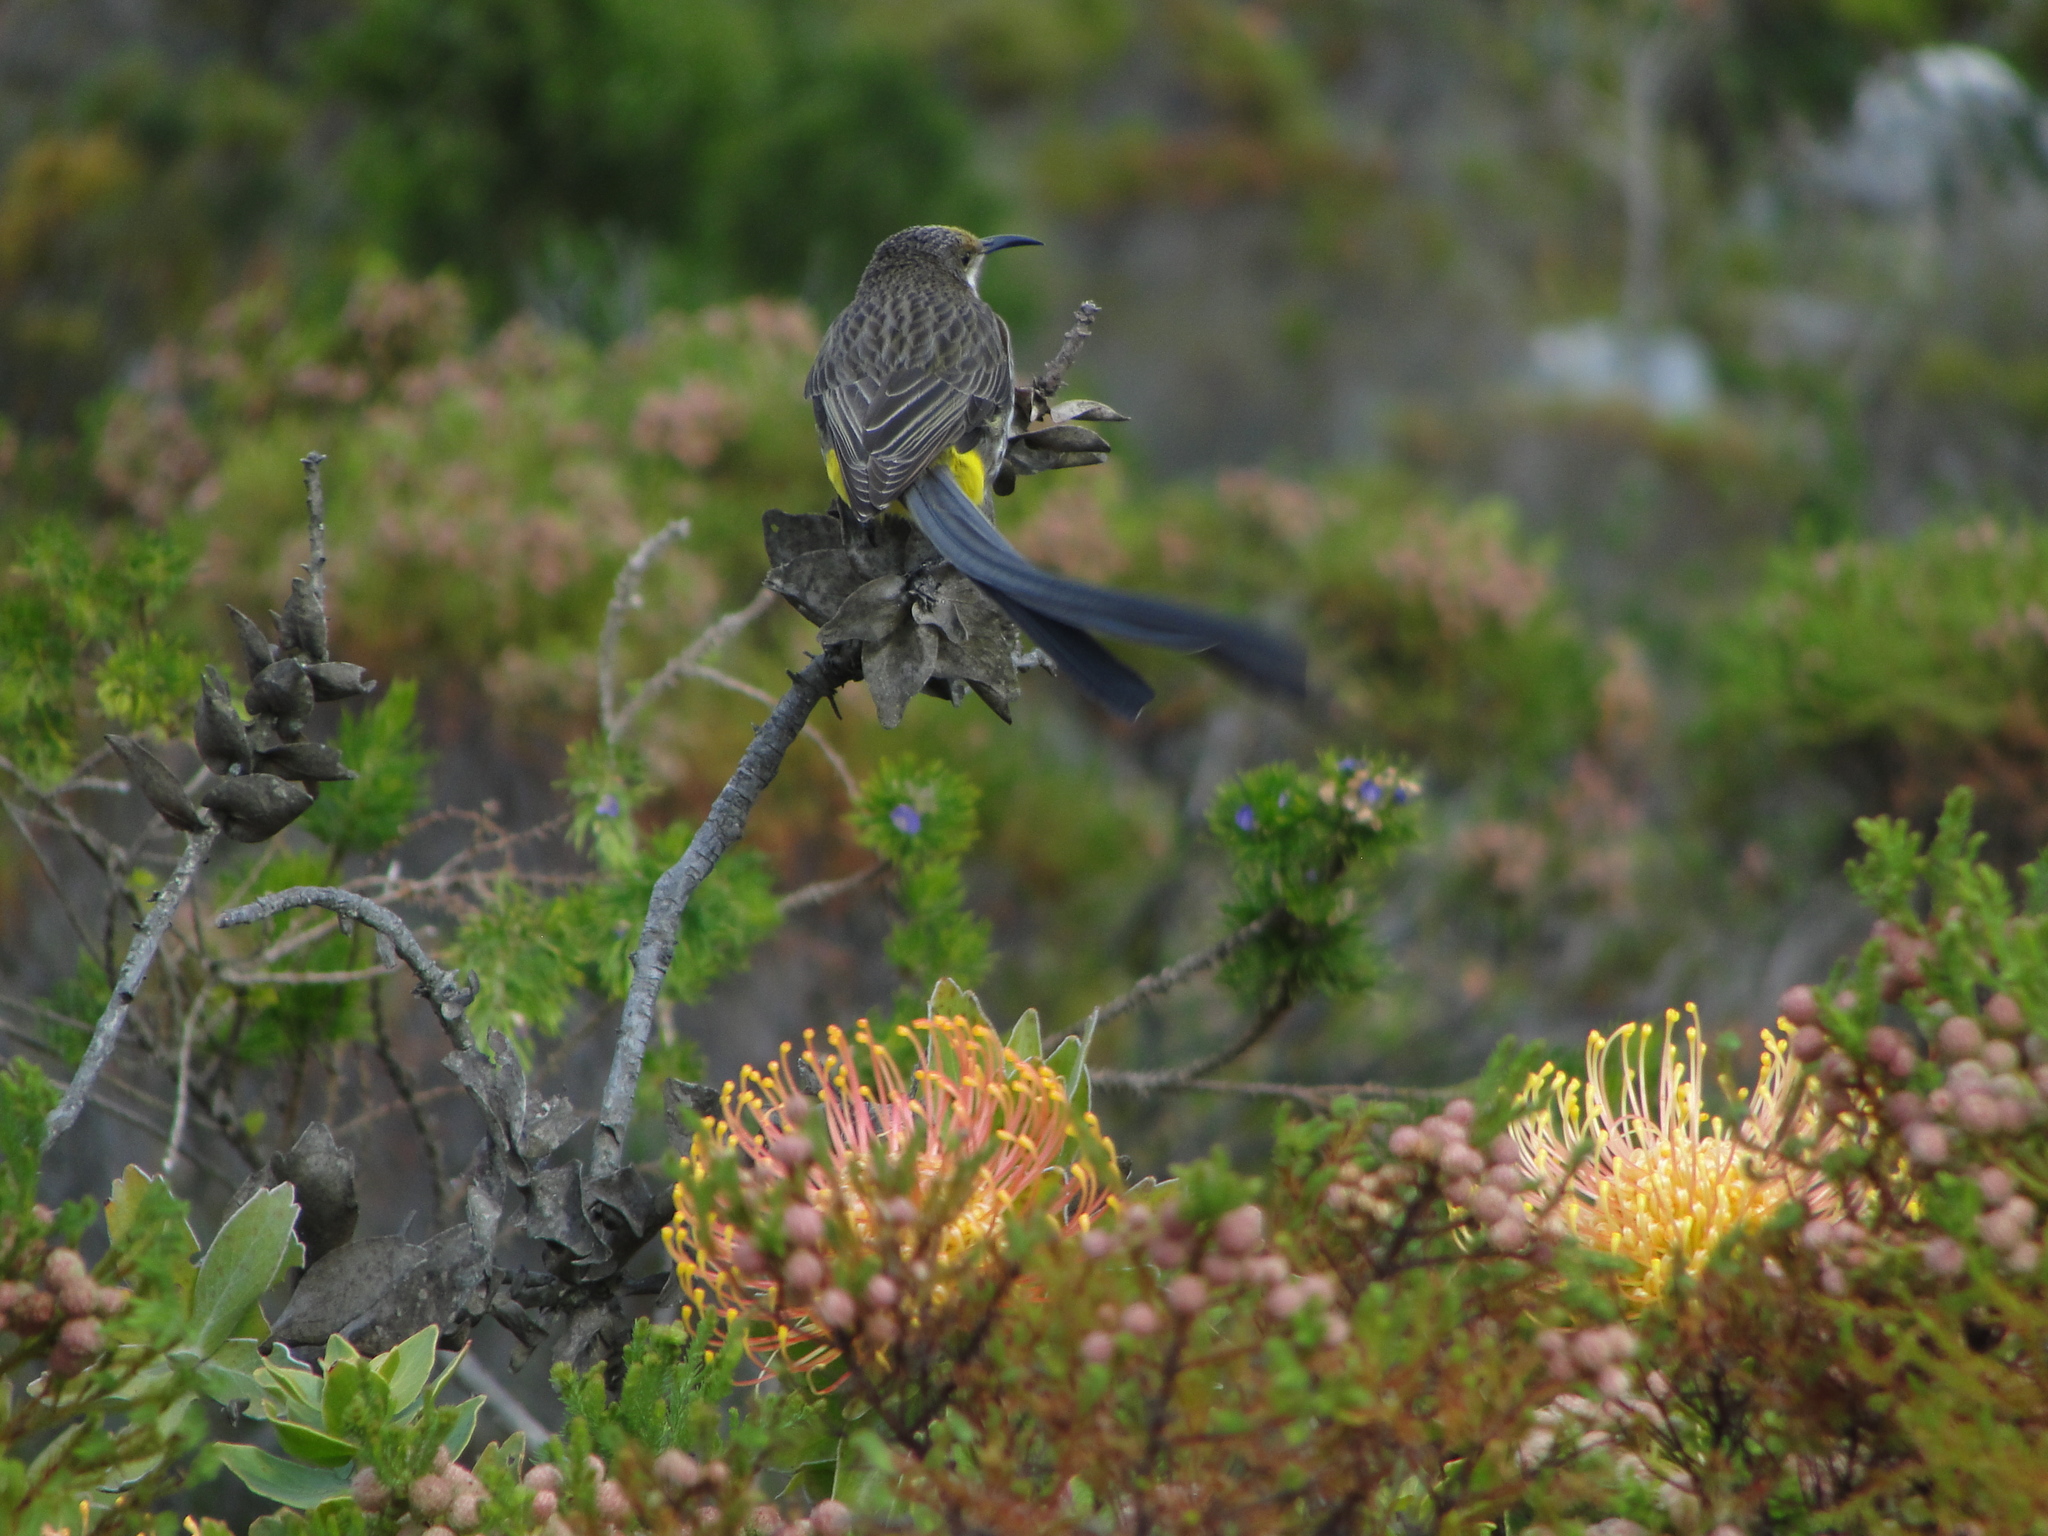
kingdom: Animalia
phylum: Chordata
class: Aves
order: Passeriformes
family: Promeropidae
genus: Promerops
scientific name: Promerops cafer
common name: Cape sugarbird
